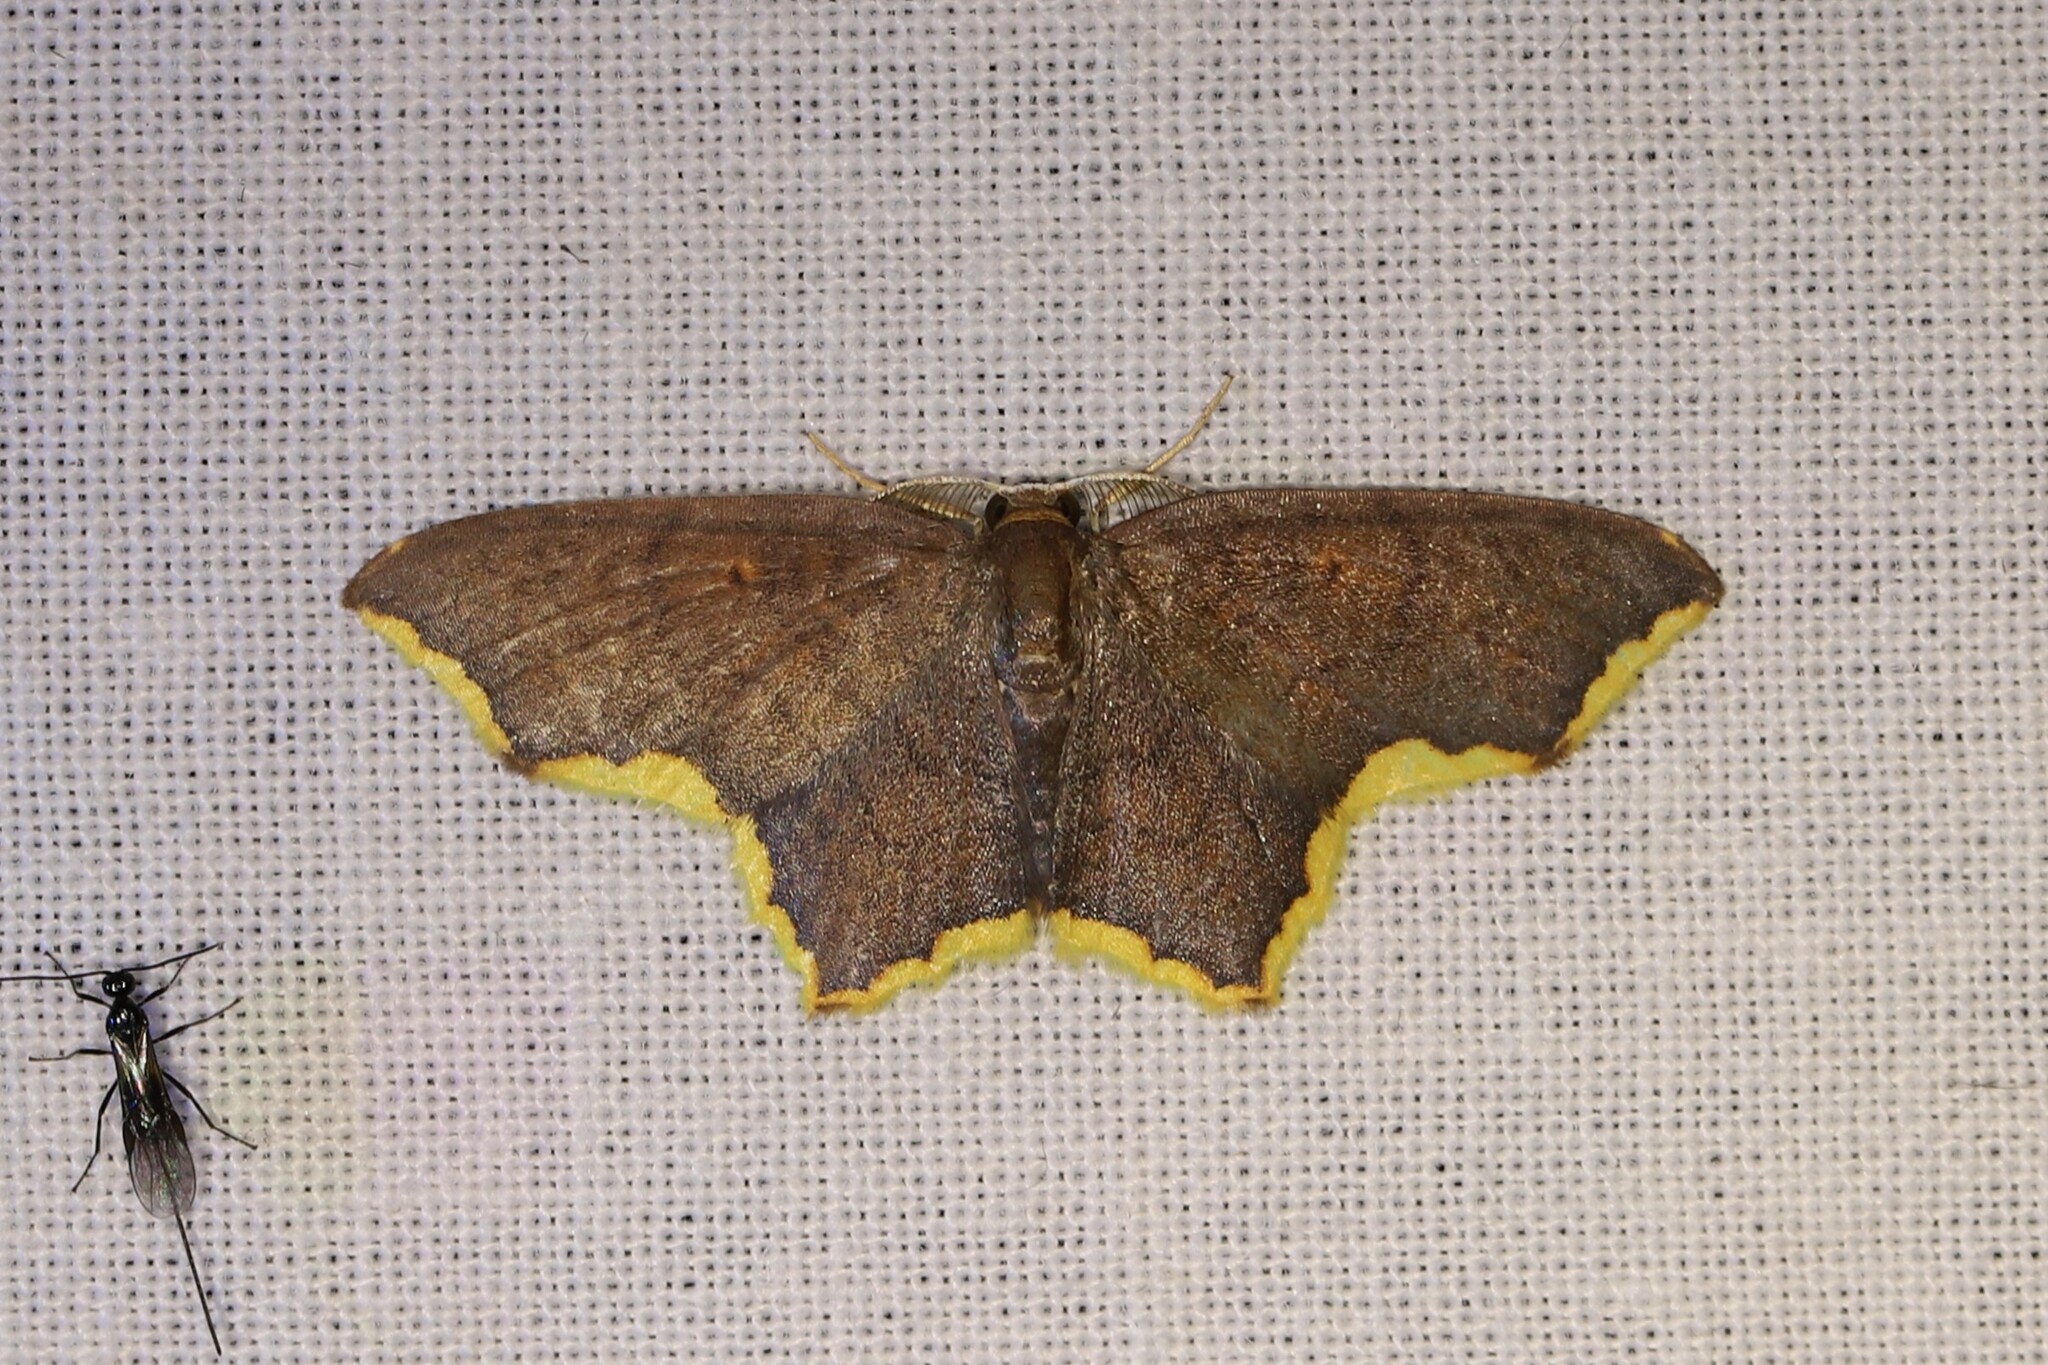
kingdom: Animalia
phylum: Arthropoda
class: Insecta
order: Lepidoptera
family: Geometridae
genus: Eois
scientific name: Eois paraviolascens
